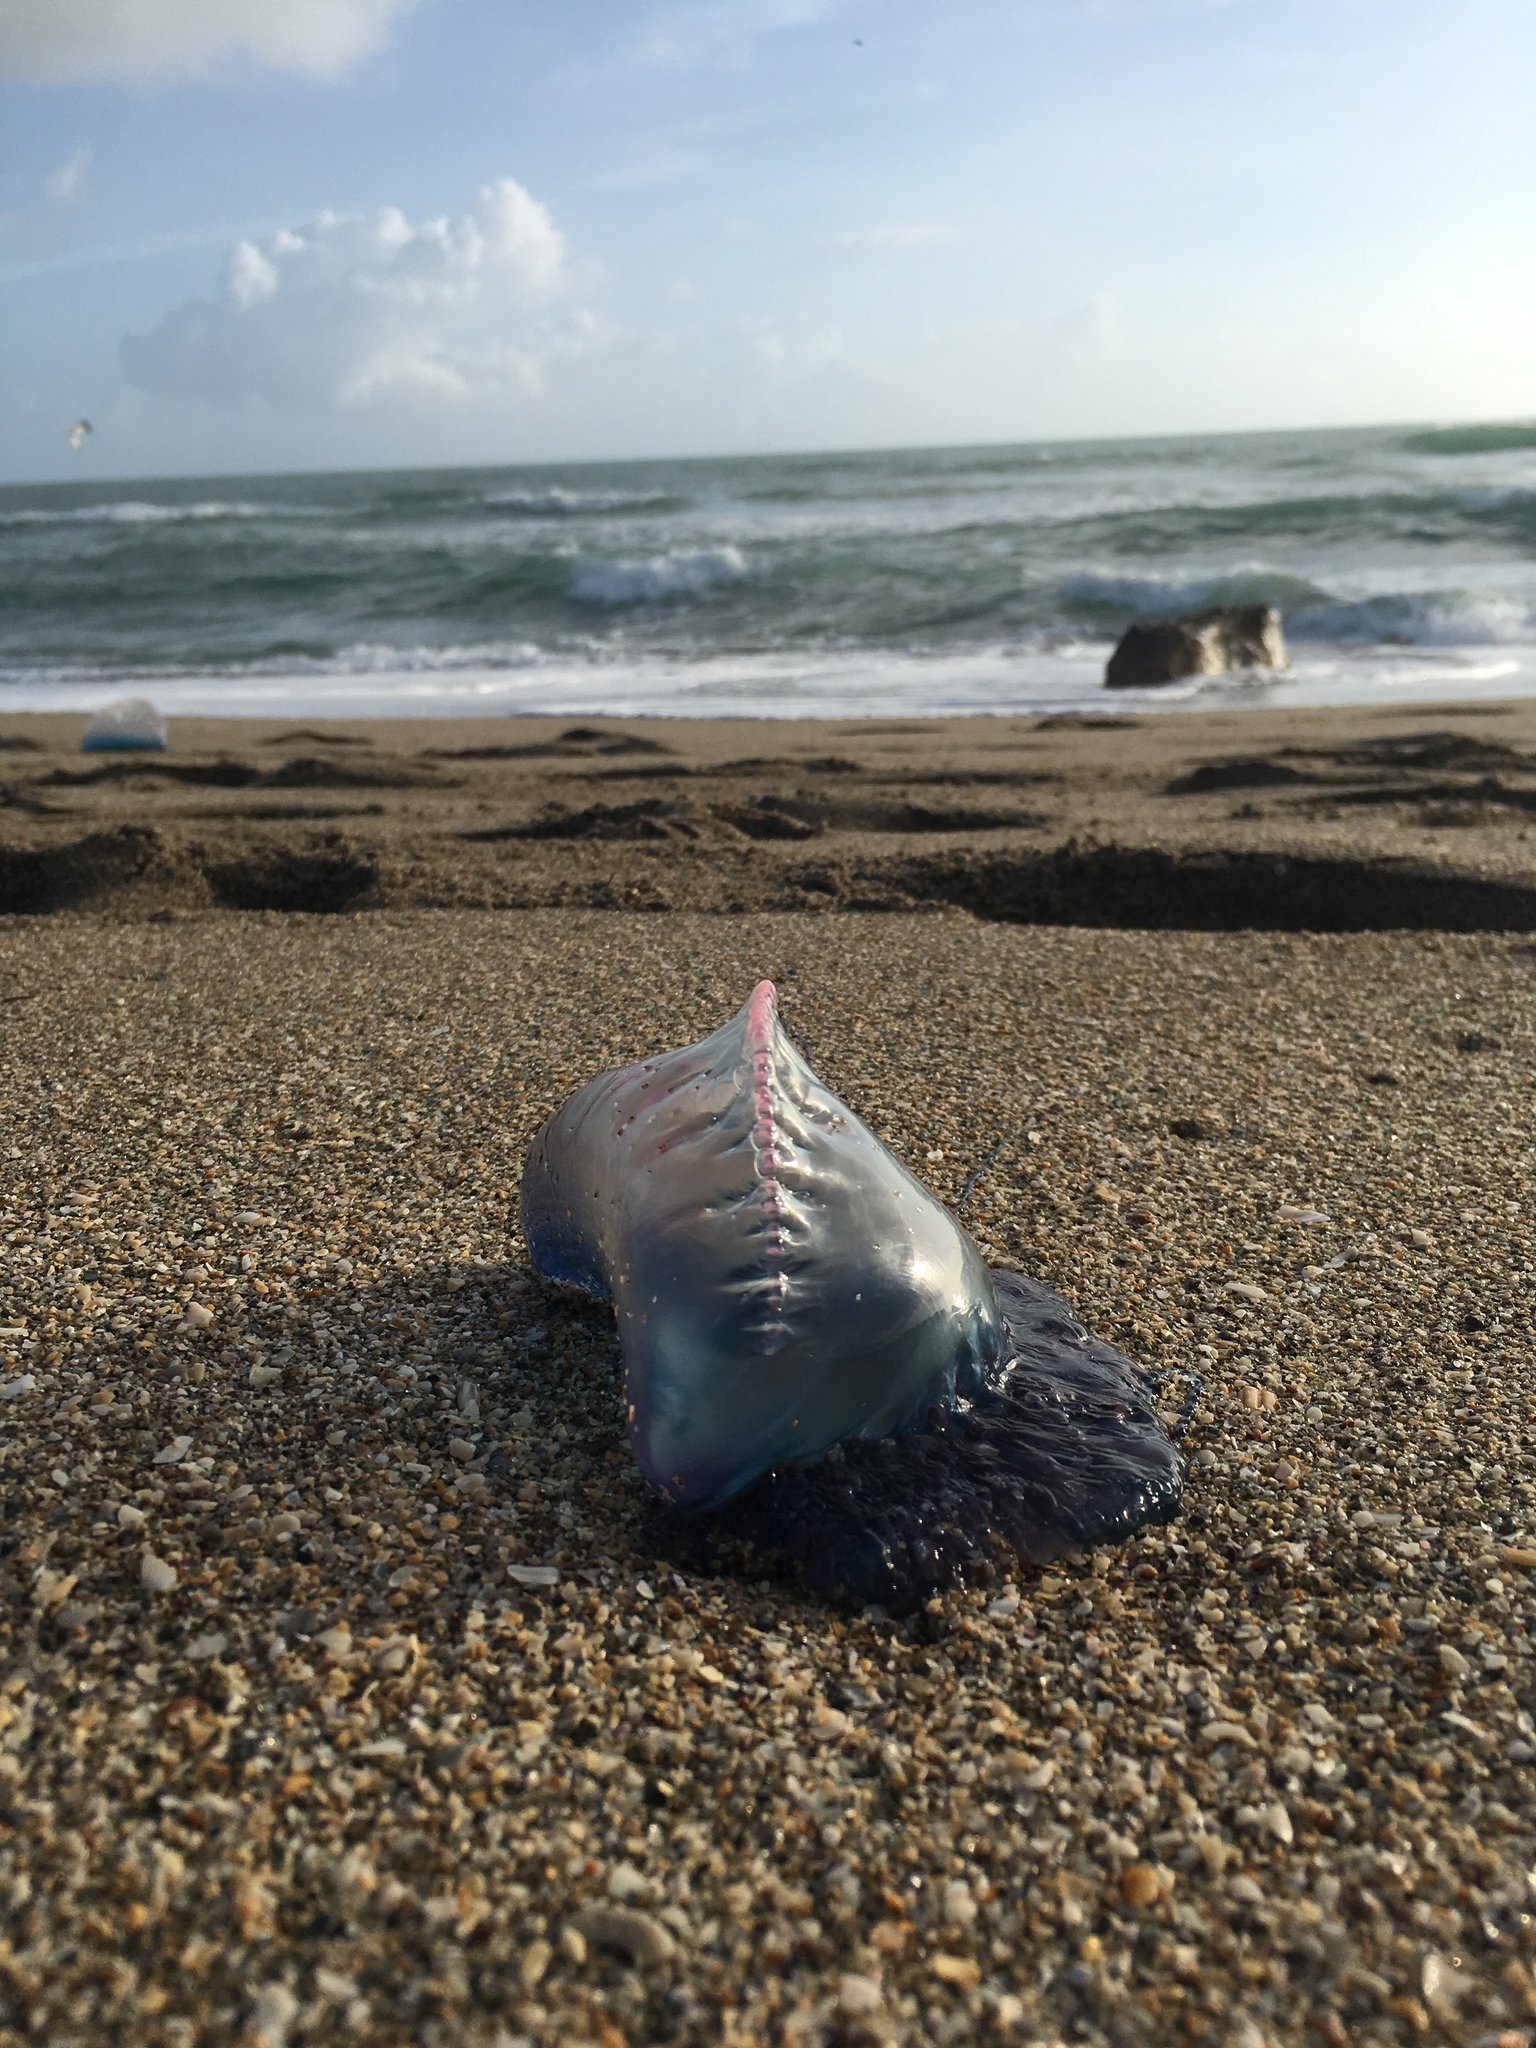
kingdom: Animalia
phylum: Cnidaria
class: Hydrozoa
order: Siphonophorae
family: Physaliidae
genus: Physalia
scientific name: Physalia physalis
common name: Portuguese man-of-war
